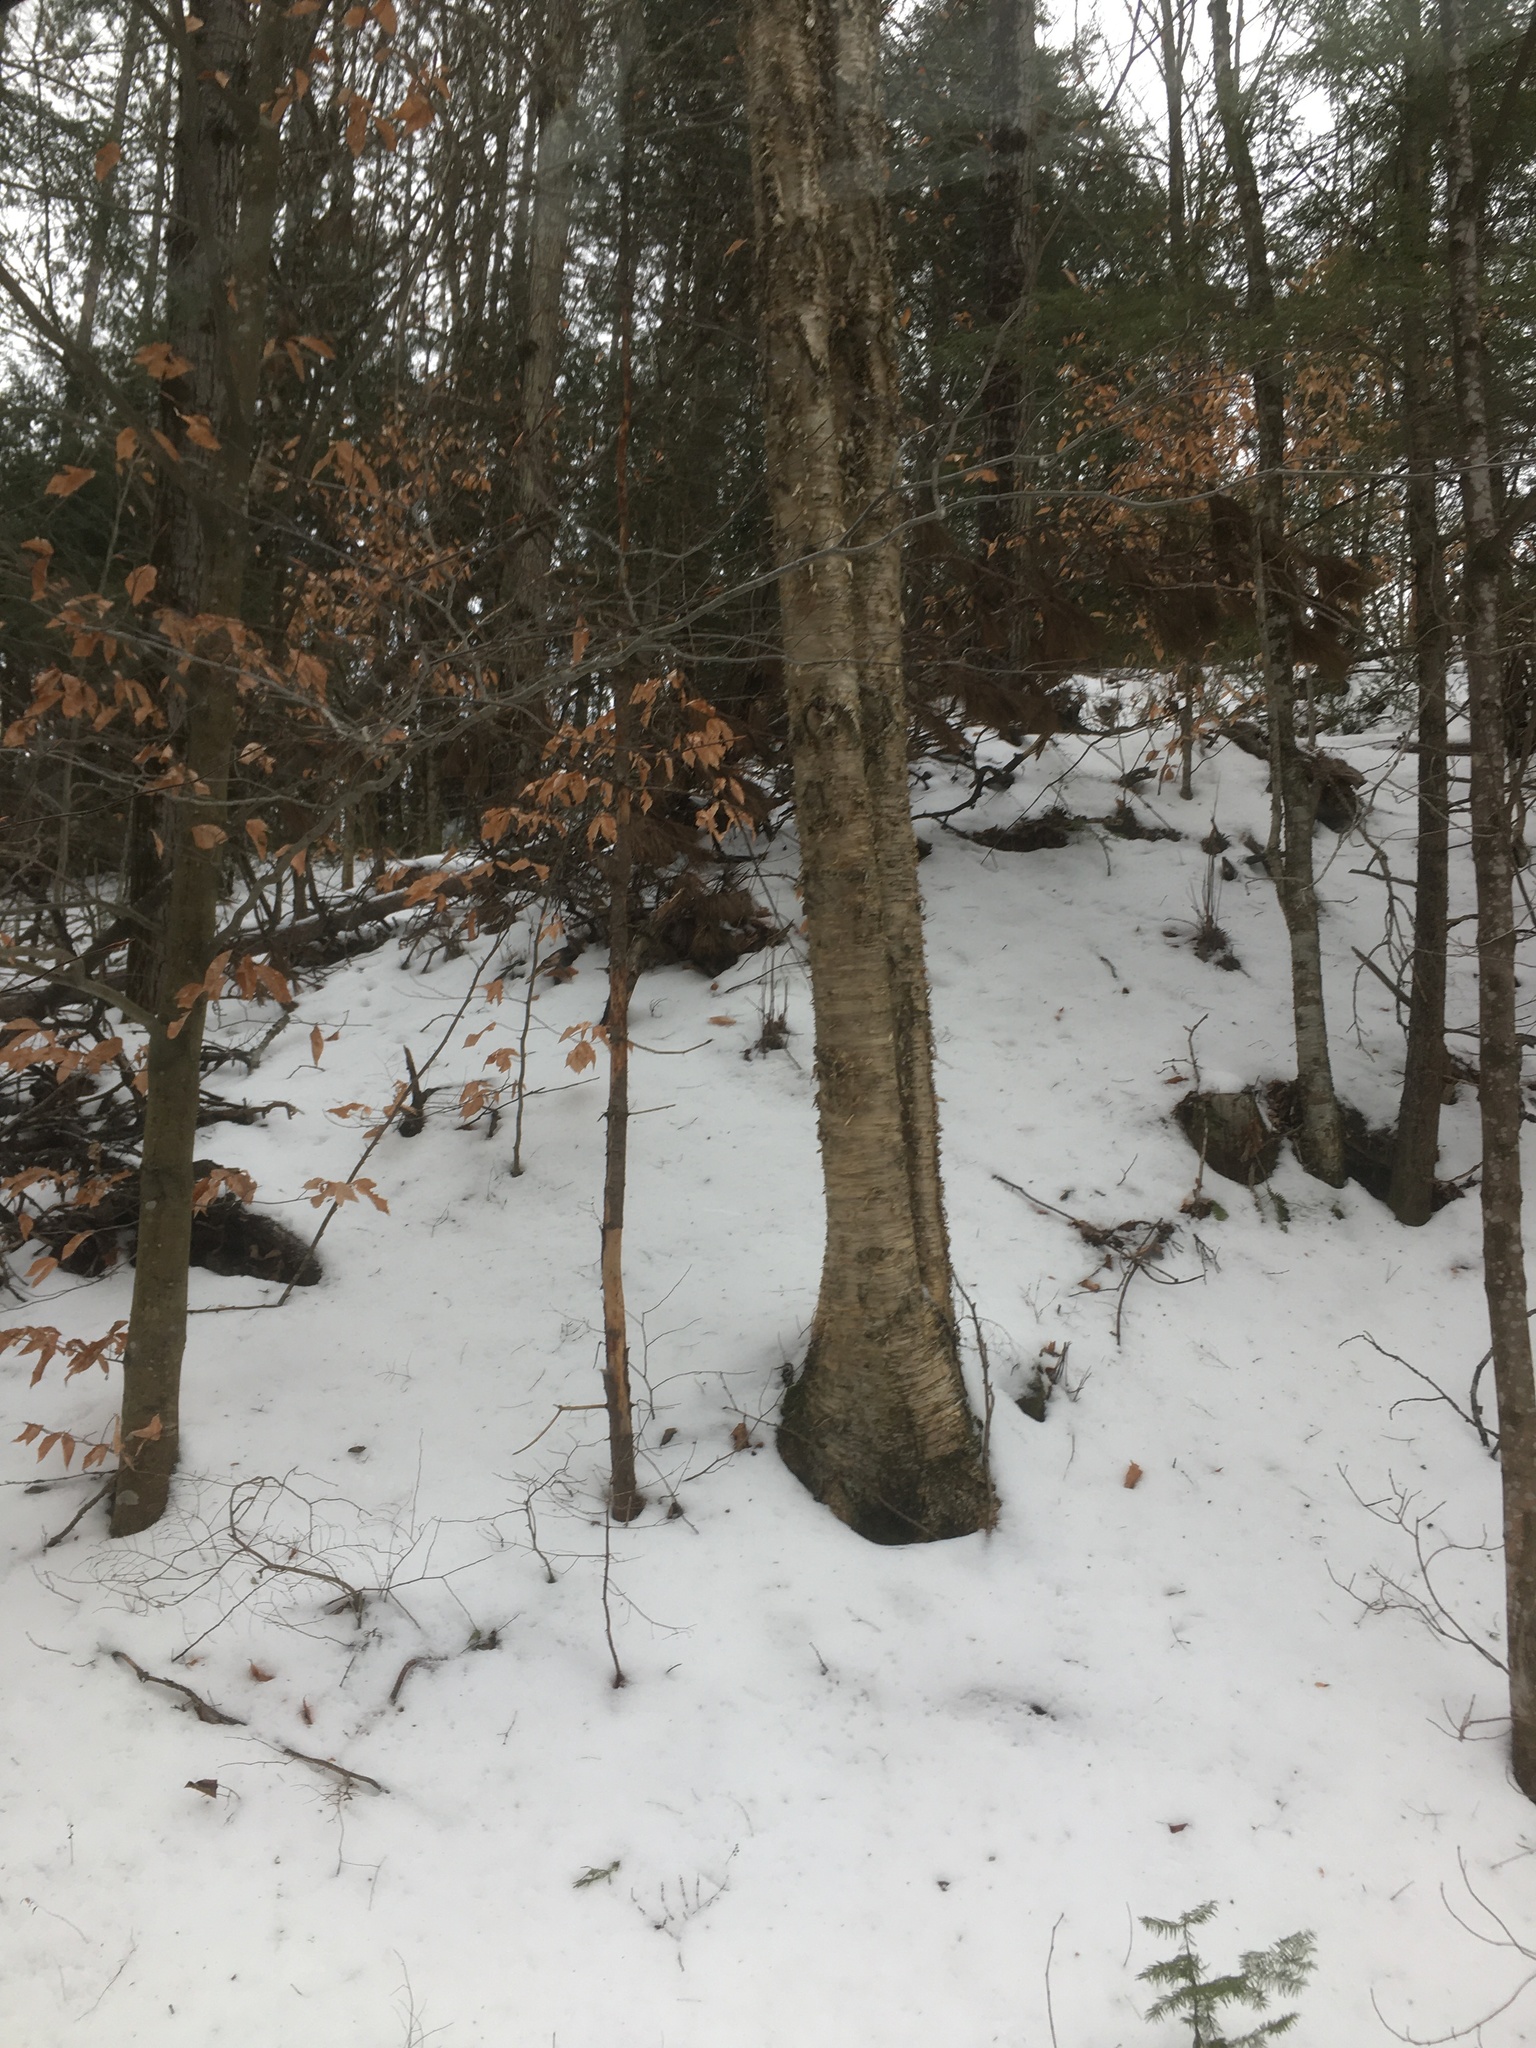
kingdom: Plantae
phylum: Tracheophyta
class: Magnoliopsida
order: Fagales
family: Betulaceae
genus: Betula
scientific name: Betula alleghaniensis
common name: Yellow birch
